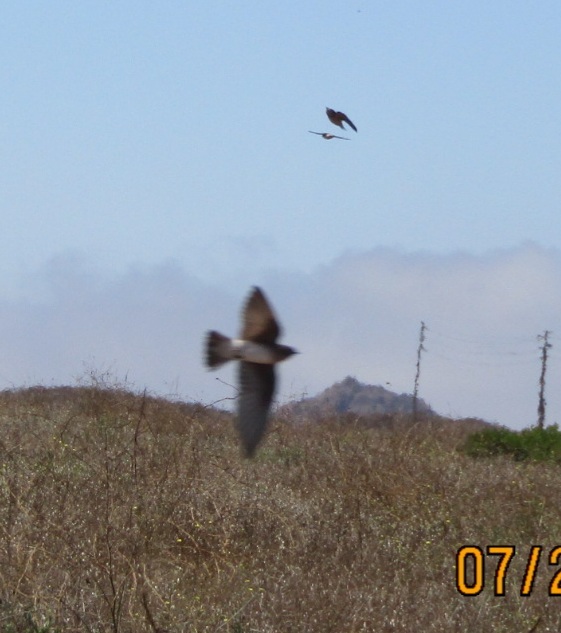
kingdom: Animalia
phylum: Chordata
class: Aves
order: Passeriformes
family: Hirundinidae
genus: Petrochelidon
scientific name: Petrochelidon pyrrhonota
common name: American cliff swallow
